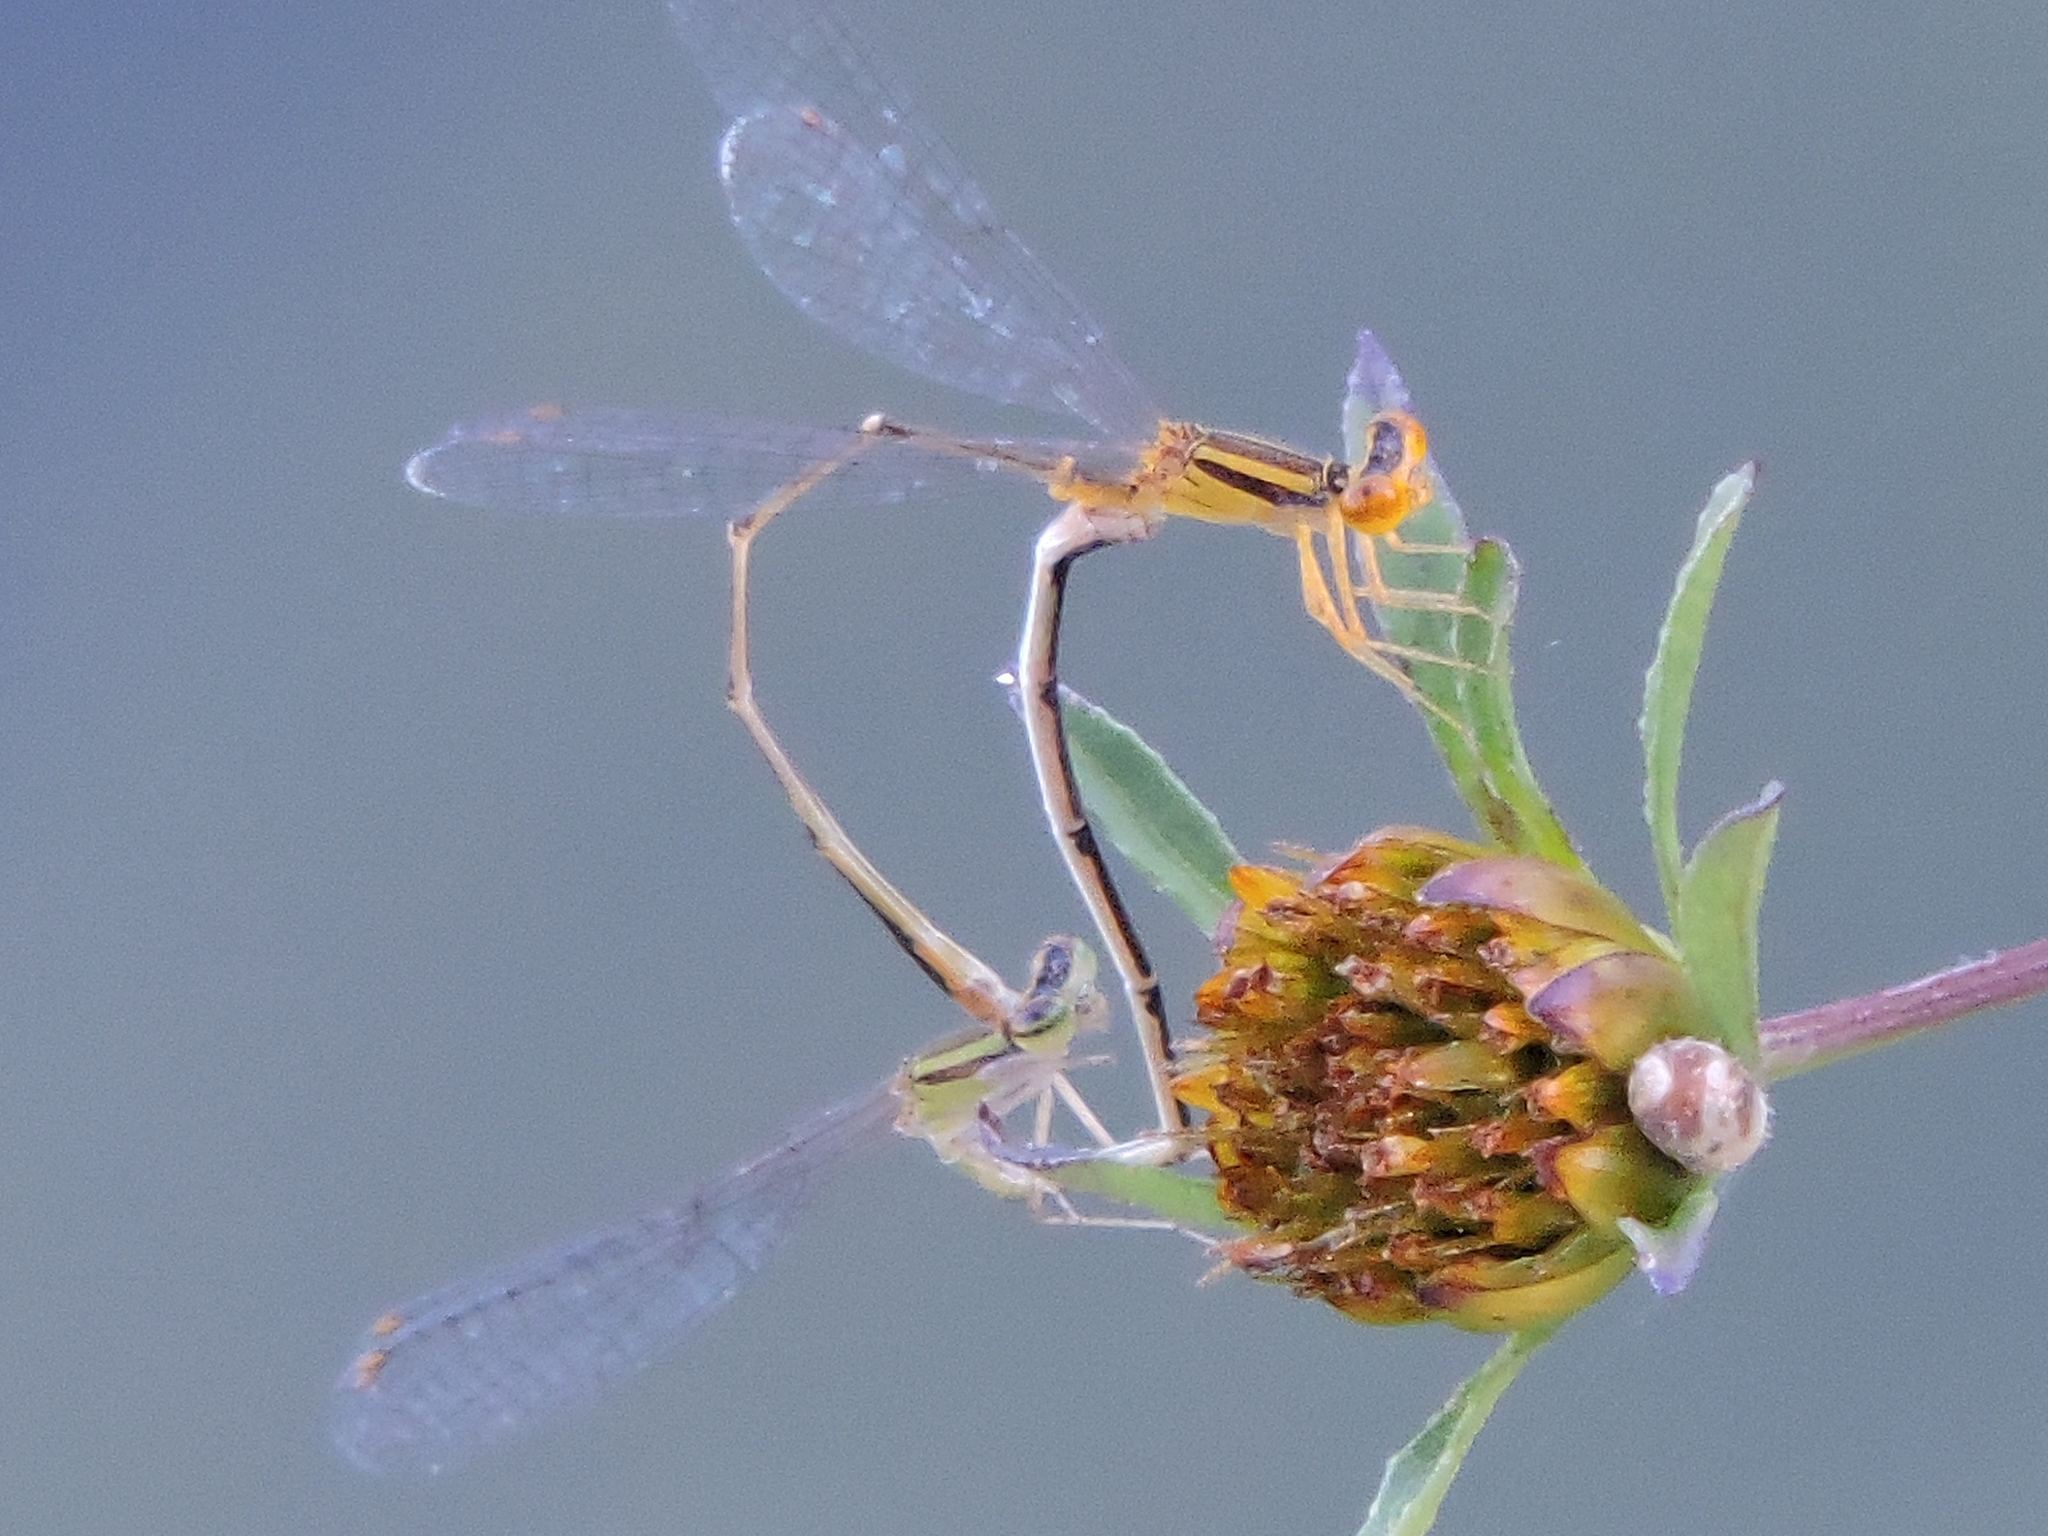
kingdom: Animalia
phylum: Arthropoda
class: Insecta
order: Odonata
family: Coenagrionidae
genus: Enallagma
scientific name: Enallagma signatum
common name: Orange bluet
